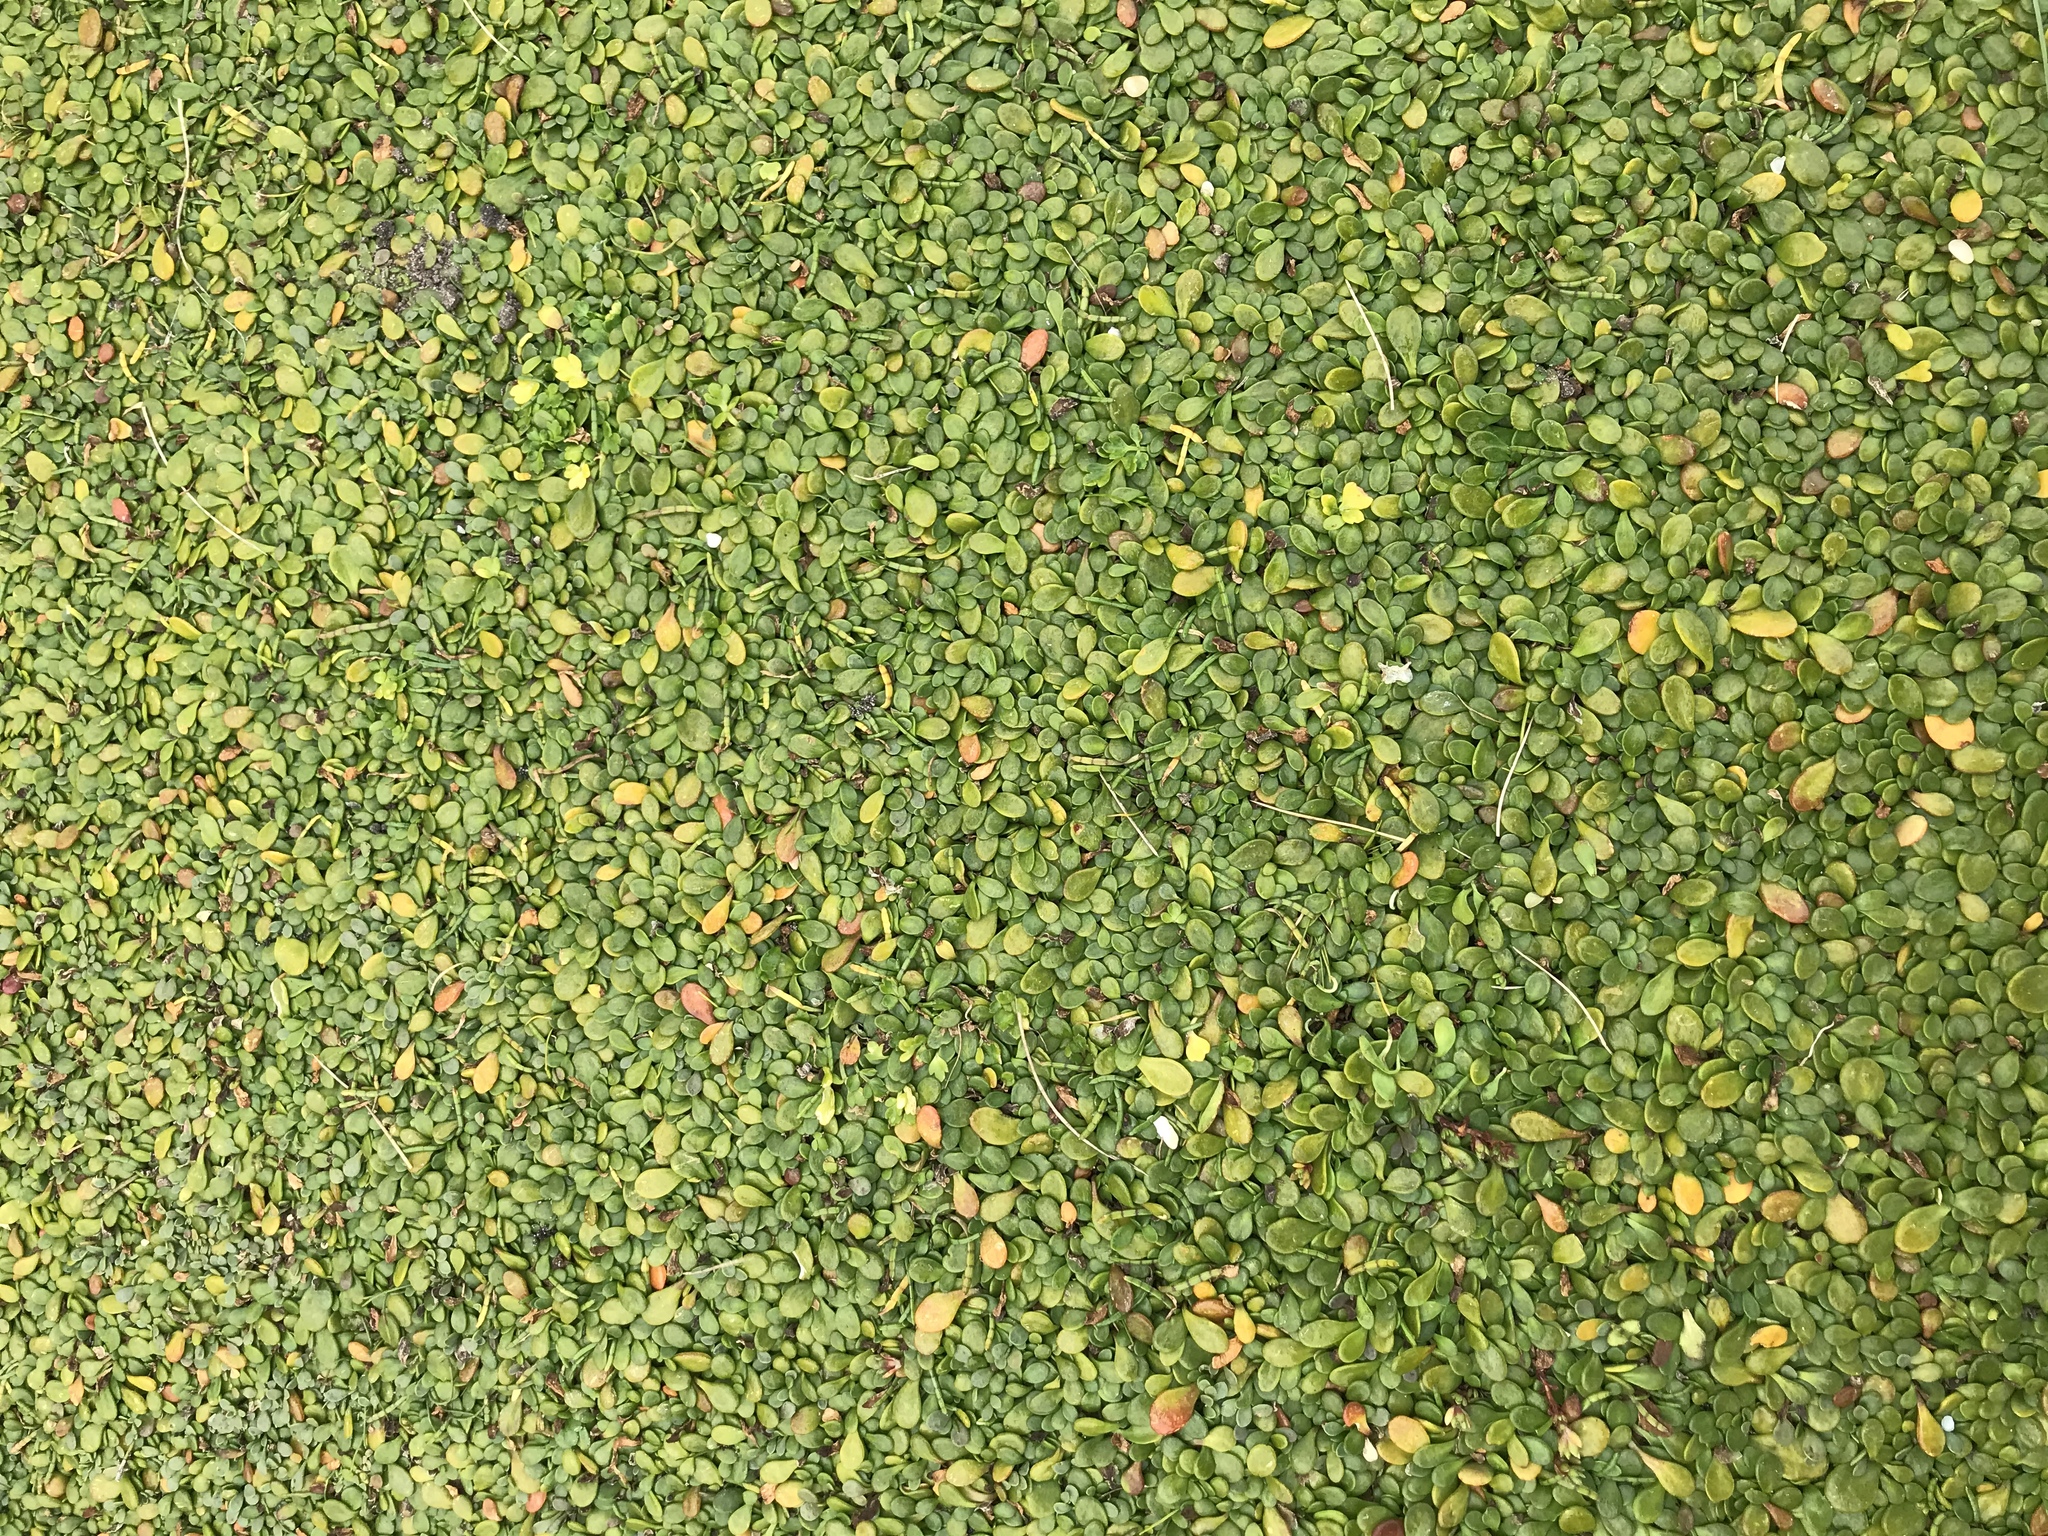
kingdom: Plantae
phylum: Tracheophyta
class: Magnoliopsida
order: Asterales
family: Goodeniaceae
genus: Goodenia
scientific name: Goodenia radicans
